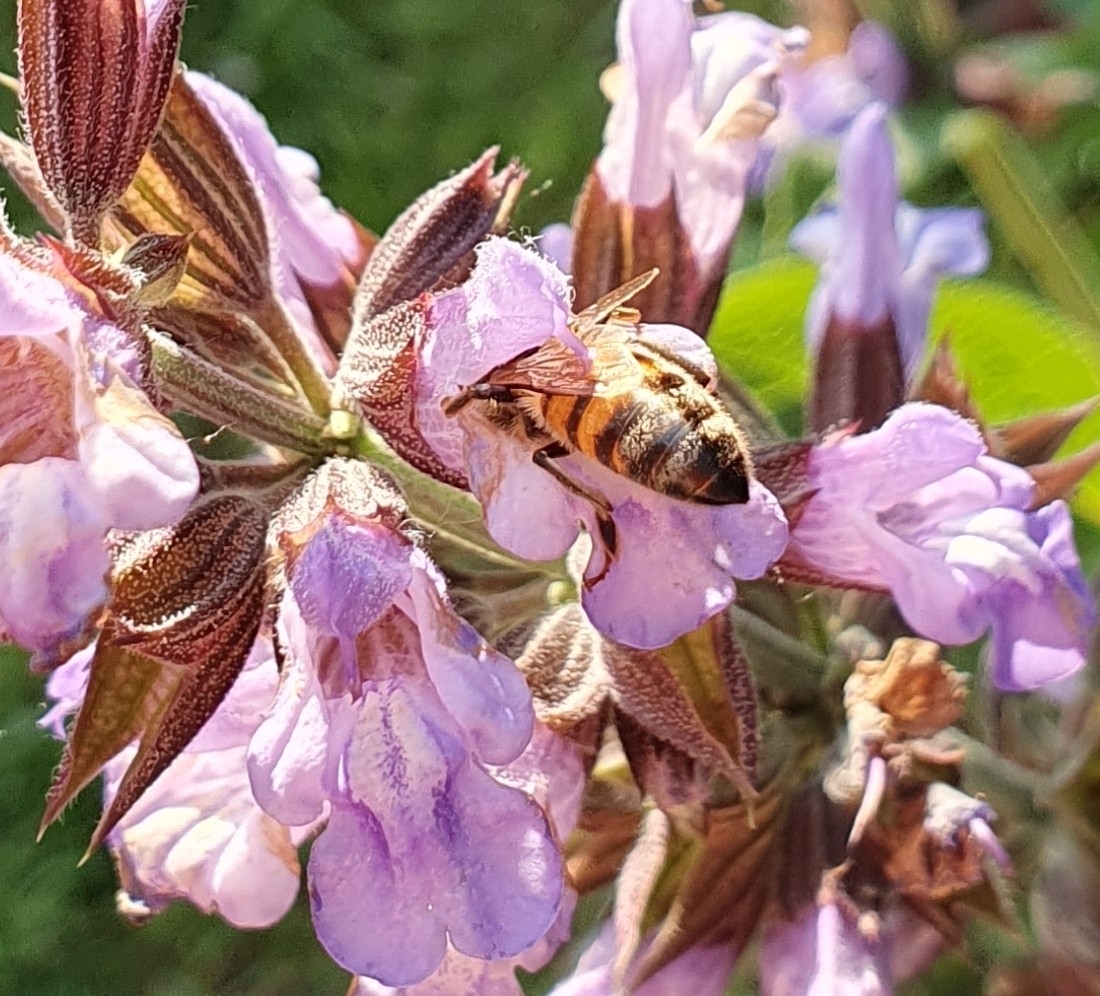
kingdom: Animalia
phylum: Arthropoda
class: Insecta
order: Hymenoptera
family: Apidae
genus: Apis
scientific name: Apis mellifera
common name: Honey bee
